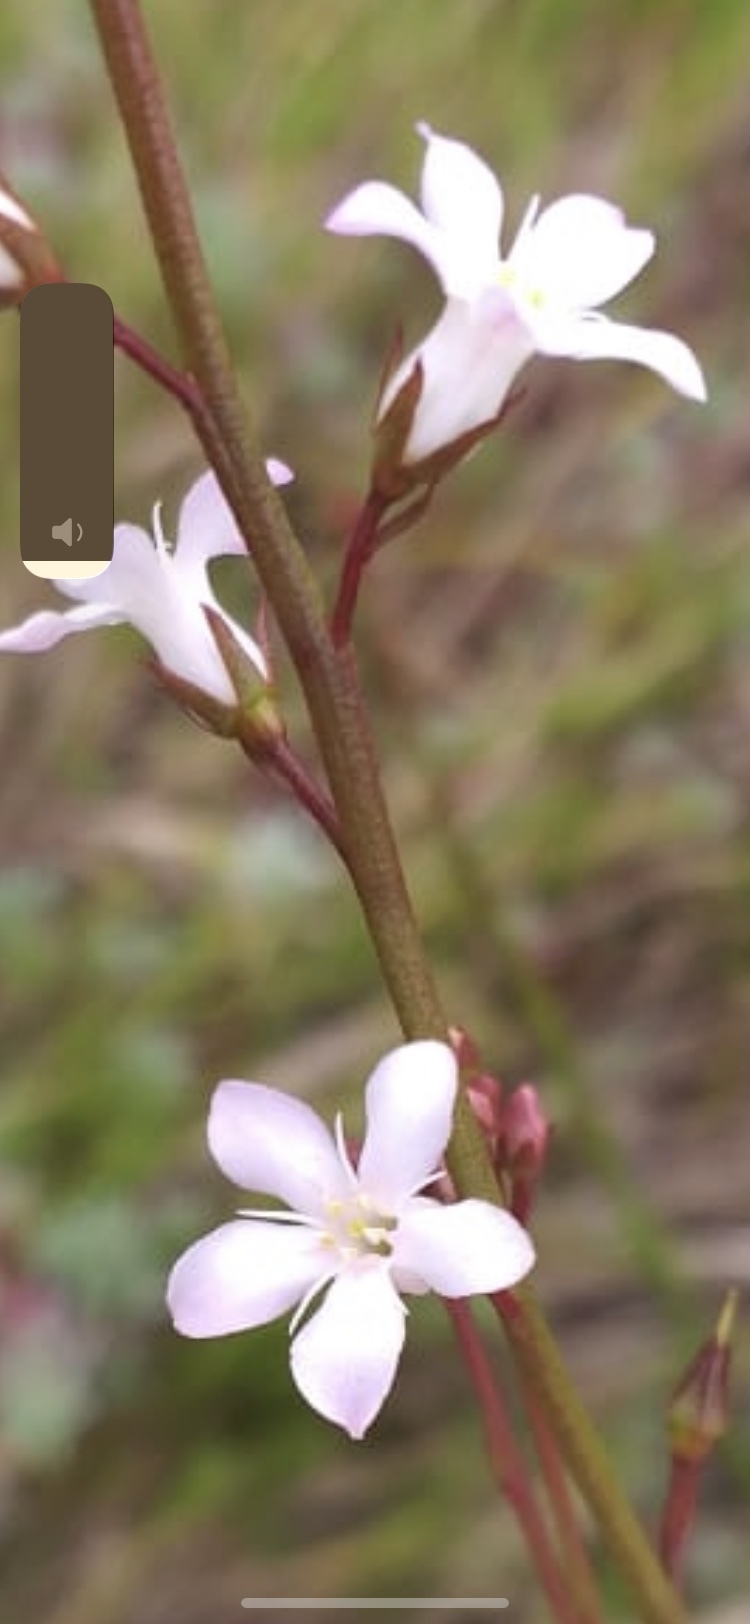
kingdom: Plantae
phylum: Tracheophyta
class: Magnoliopsida
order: Ericales
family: Primulaceae
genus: Samolus
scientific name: Samolus porosus
